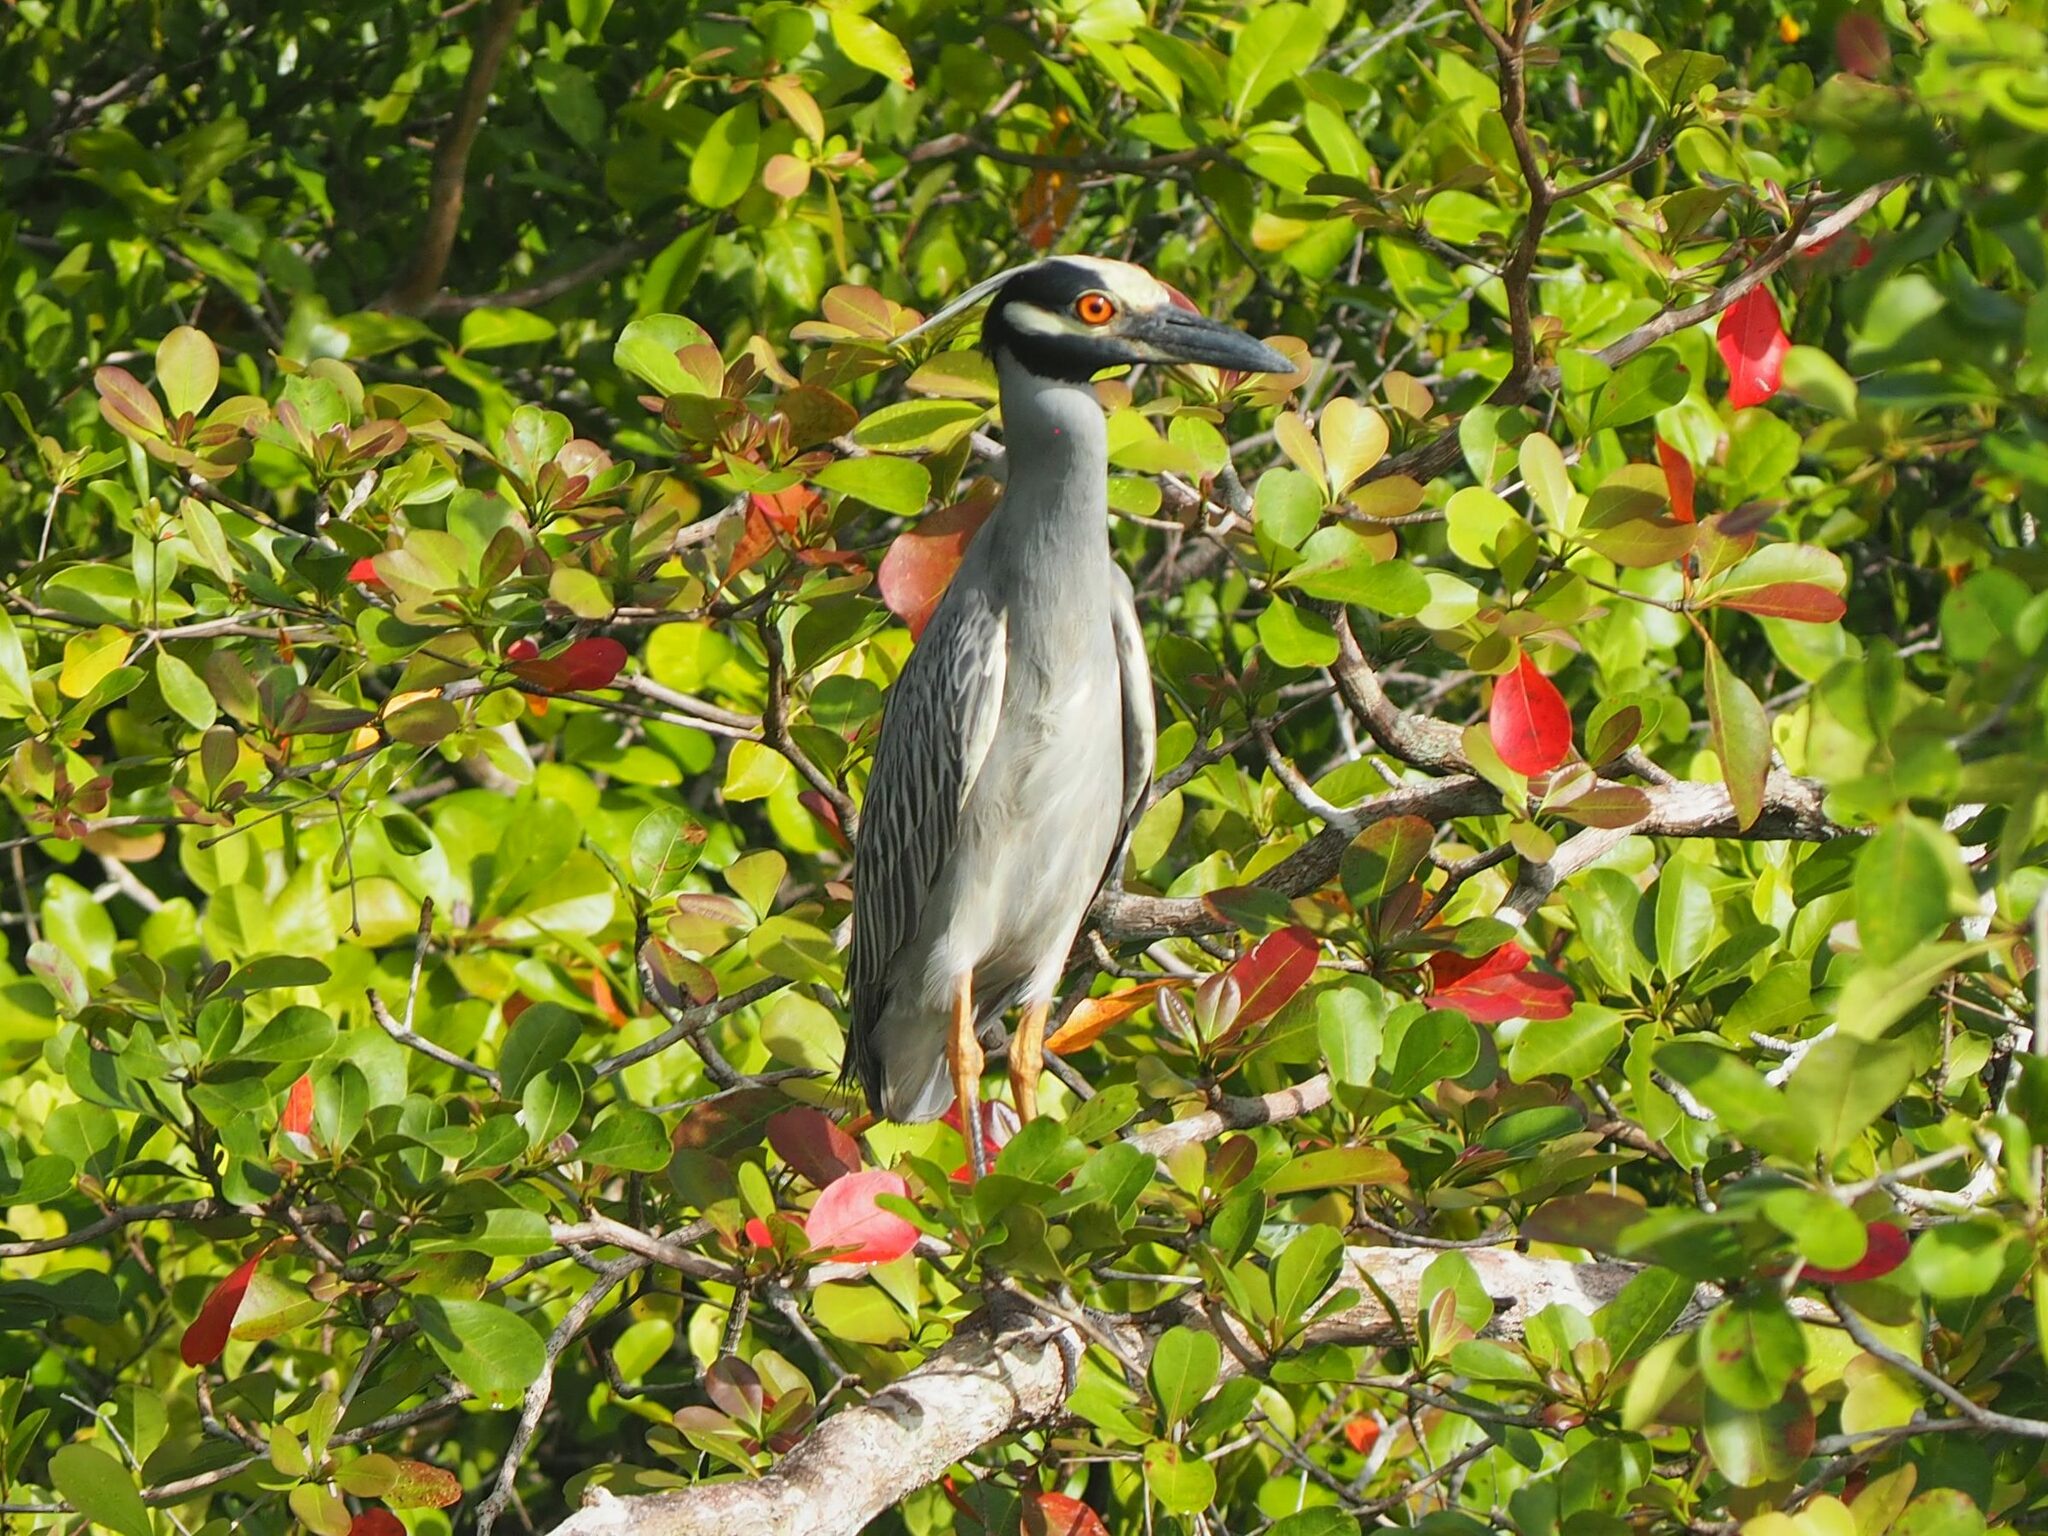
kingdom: Animalia
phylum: Chordata
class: Aves
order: Pelecaniformes
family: Ardeidae
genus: Nyctanassa
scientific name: Nyctanassa violacea
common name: Yellow-crowned night heron
